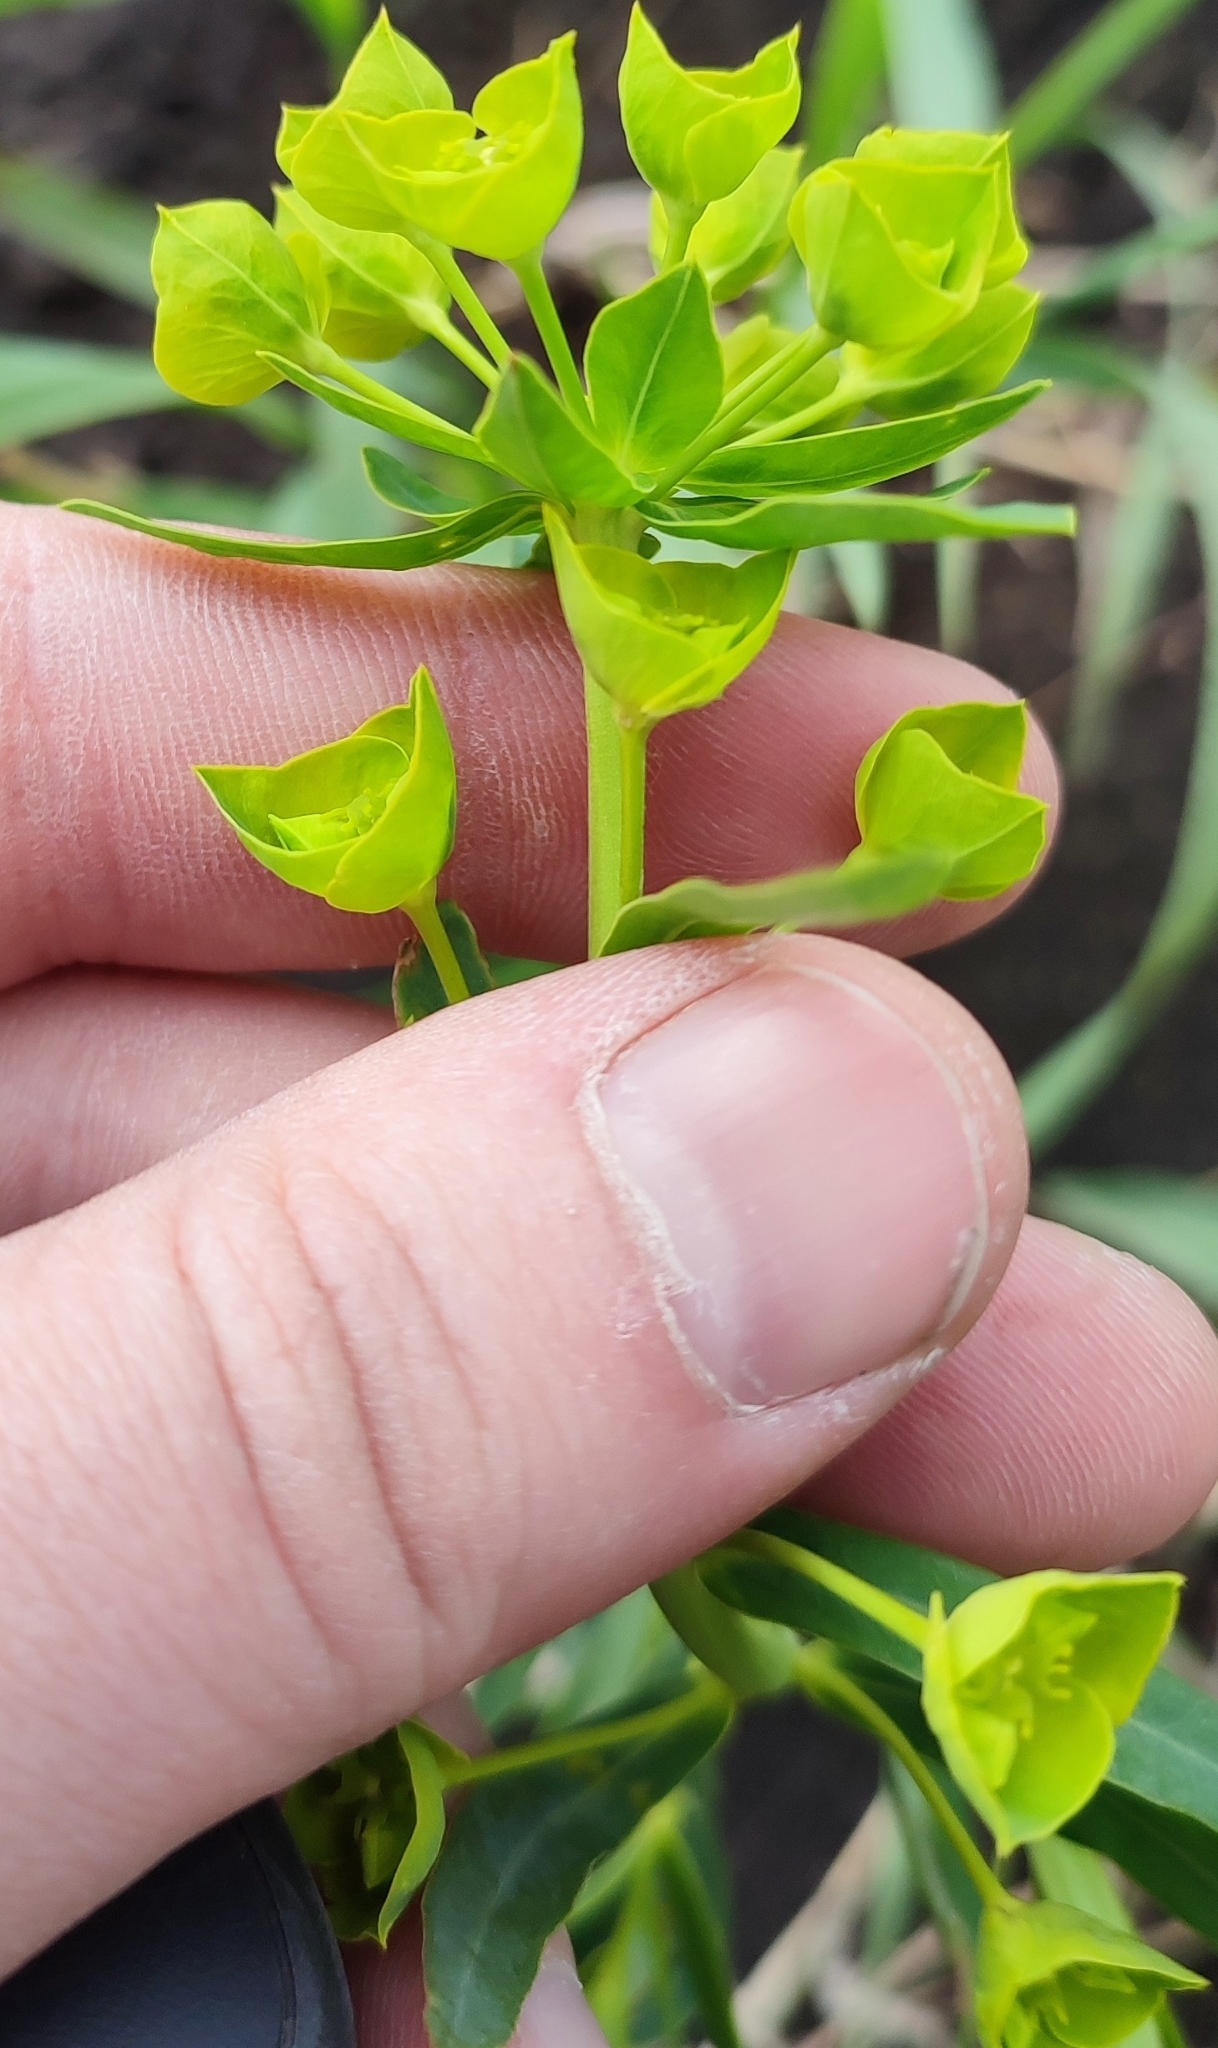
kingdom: Plantae
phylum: Tracheophyta
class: Magnoliopsida
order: Malpighiales
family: Euphorbiaceae
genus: Euphorbia
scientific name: Euphorbia virgata
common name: Leafy spurge
